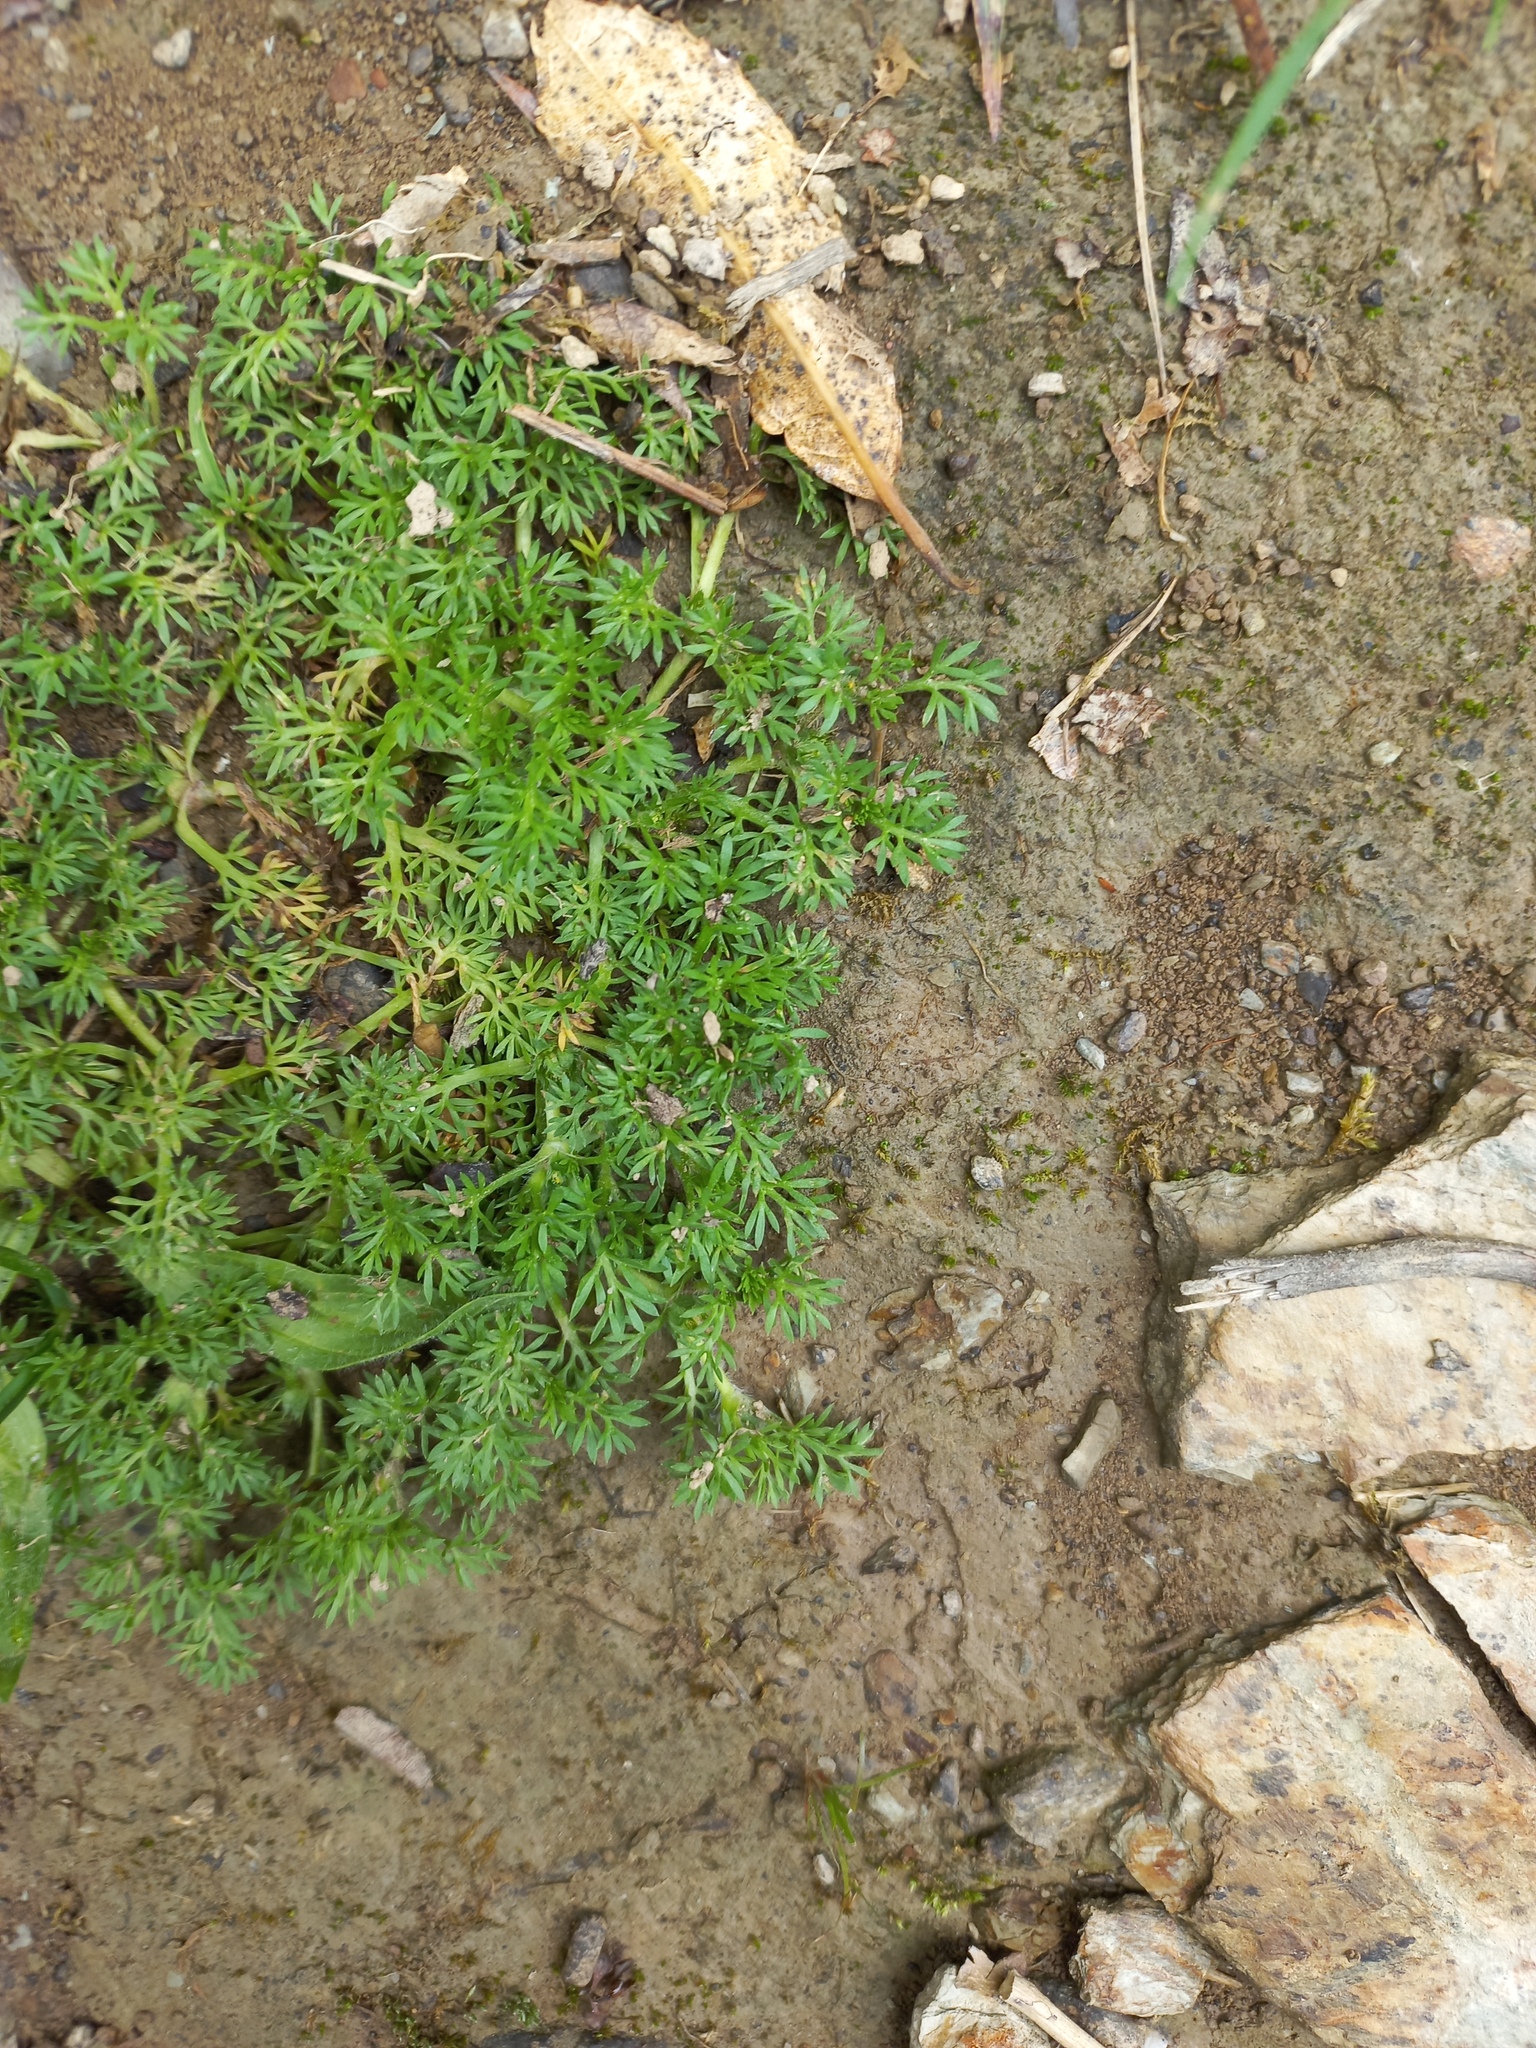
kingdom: Plantae
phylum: Tracheophyta
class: Magnoliopsida
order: Asterales
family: Asteraceae
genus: Soliva
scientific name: Soliva sessilis
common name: Field burrweed
